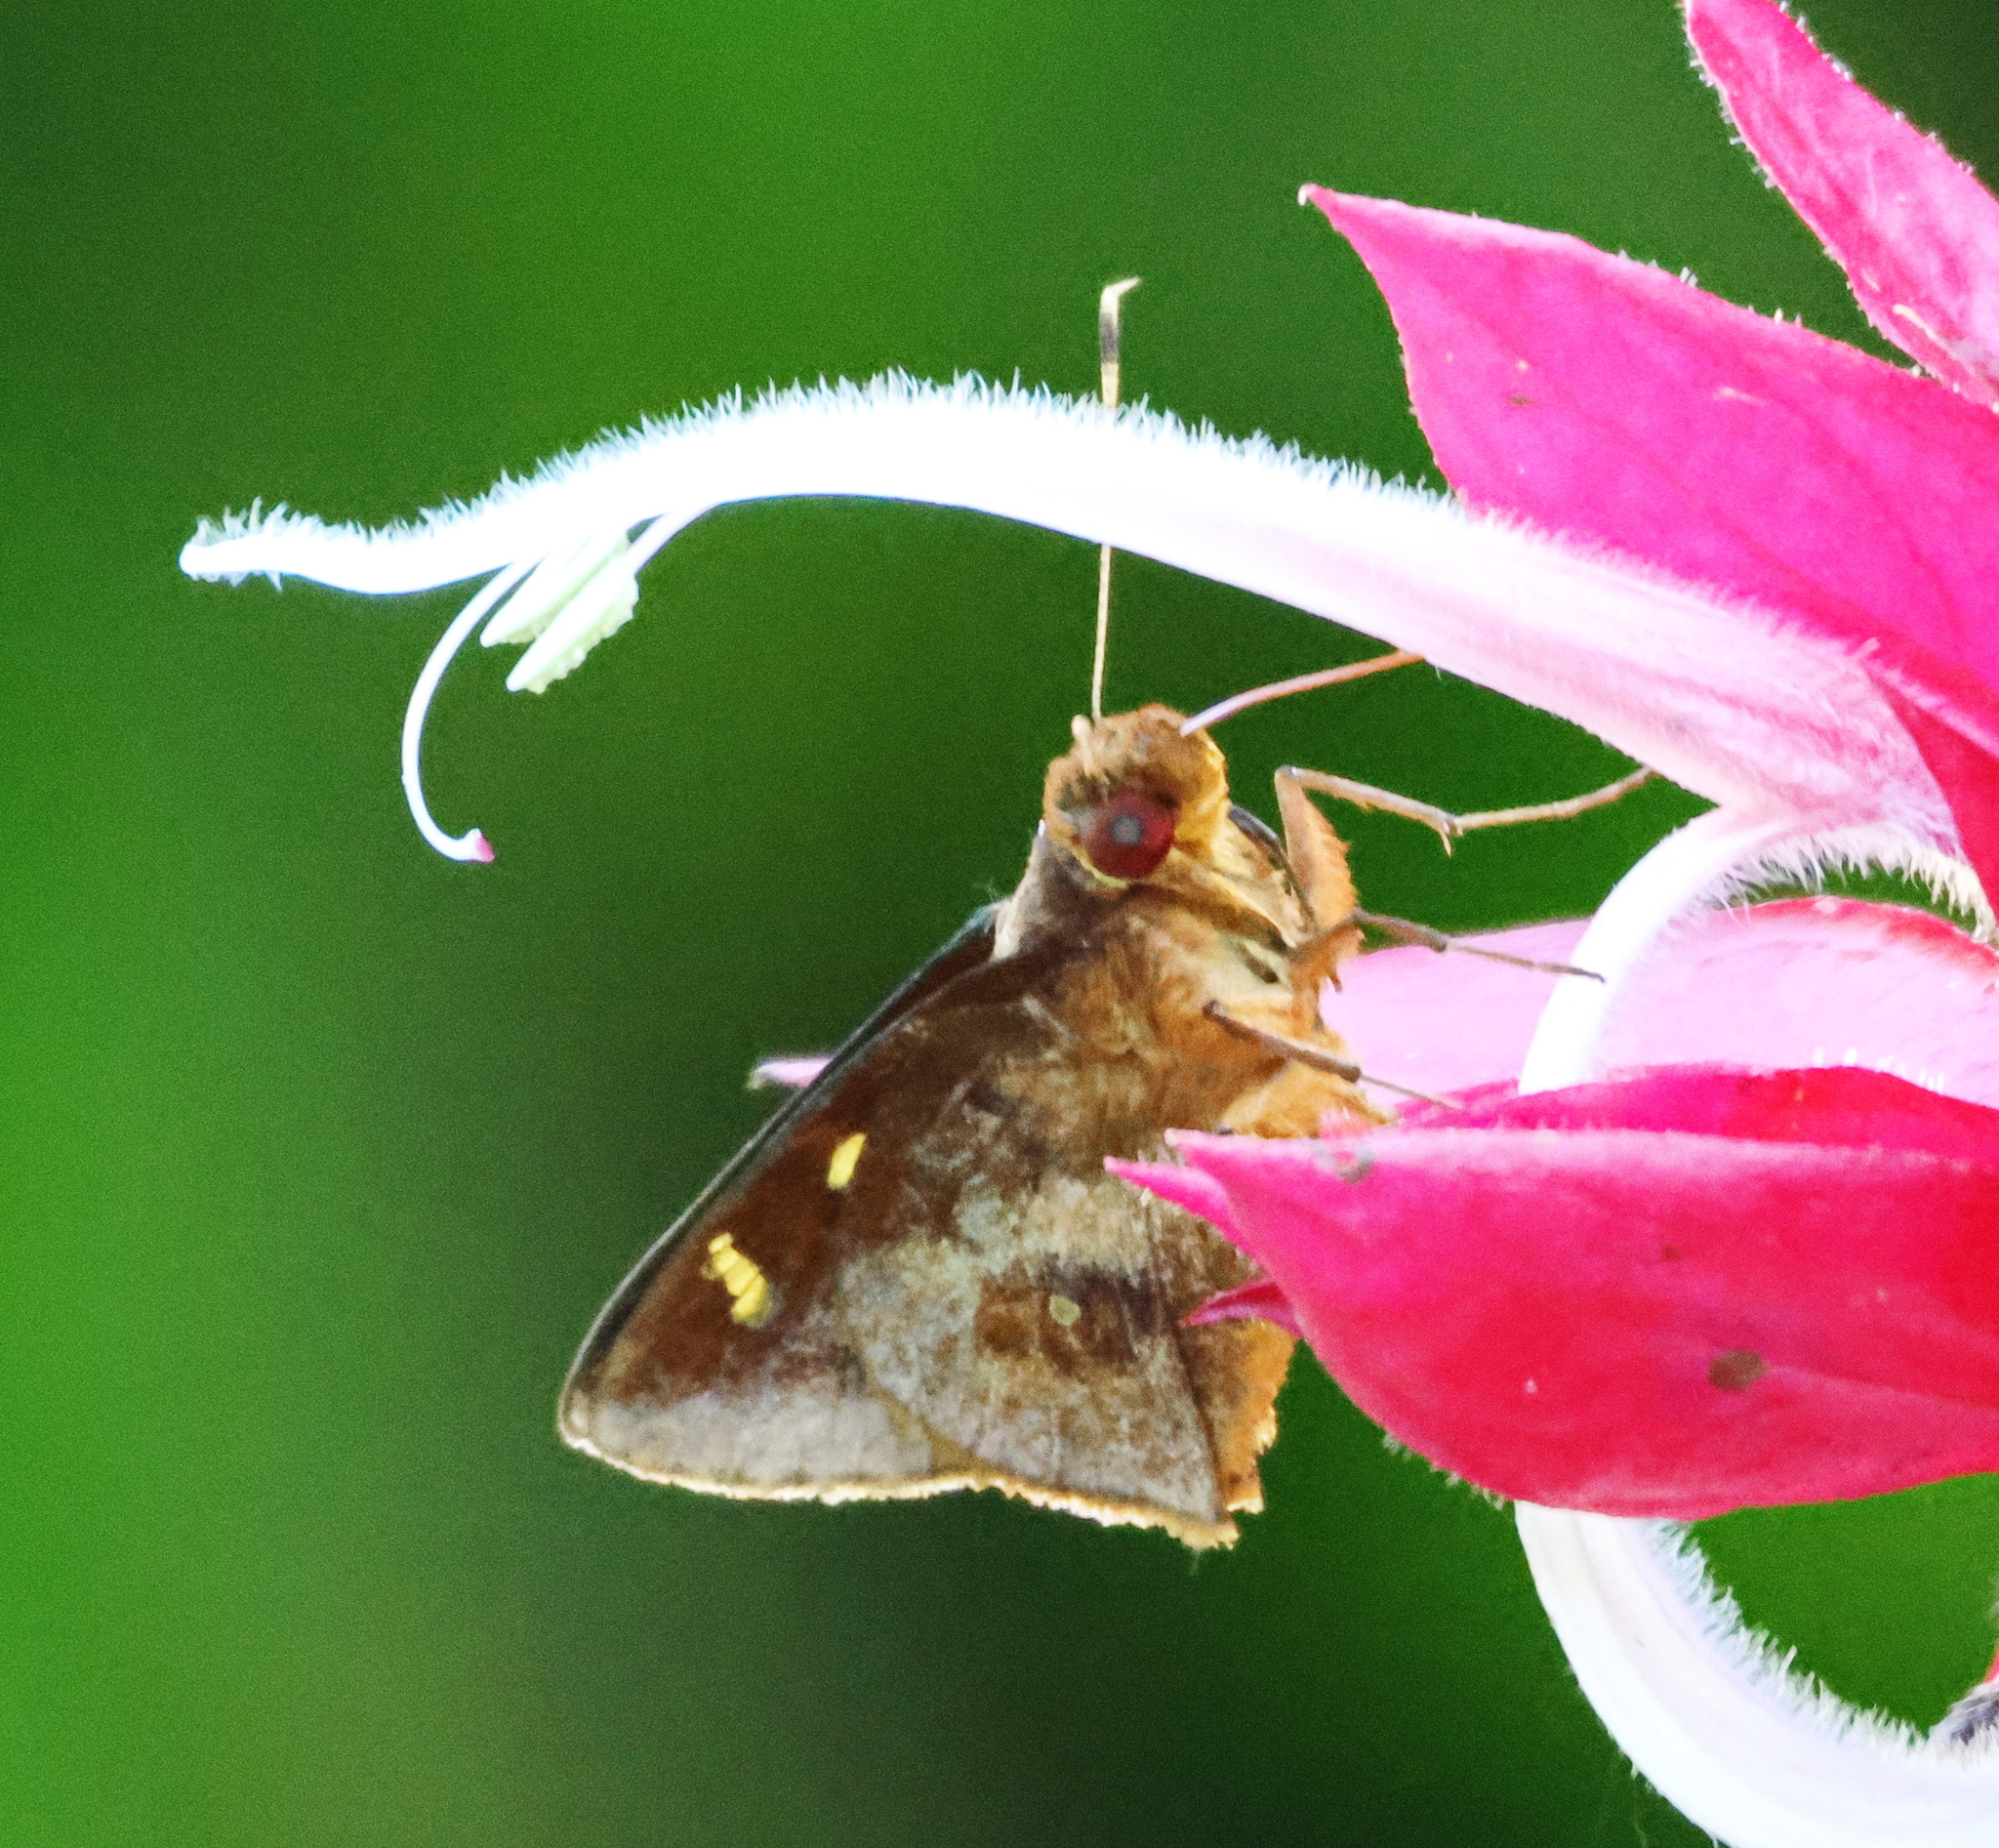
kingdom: Animalia
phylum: Arthropoda
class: Insecta
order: Lepidoptera
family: Hesperiidae
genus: Talides
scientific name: Talides alternata
